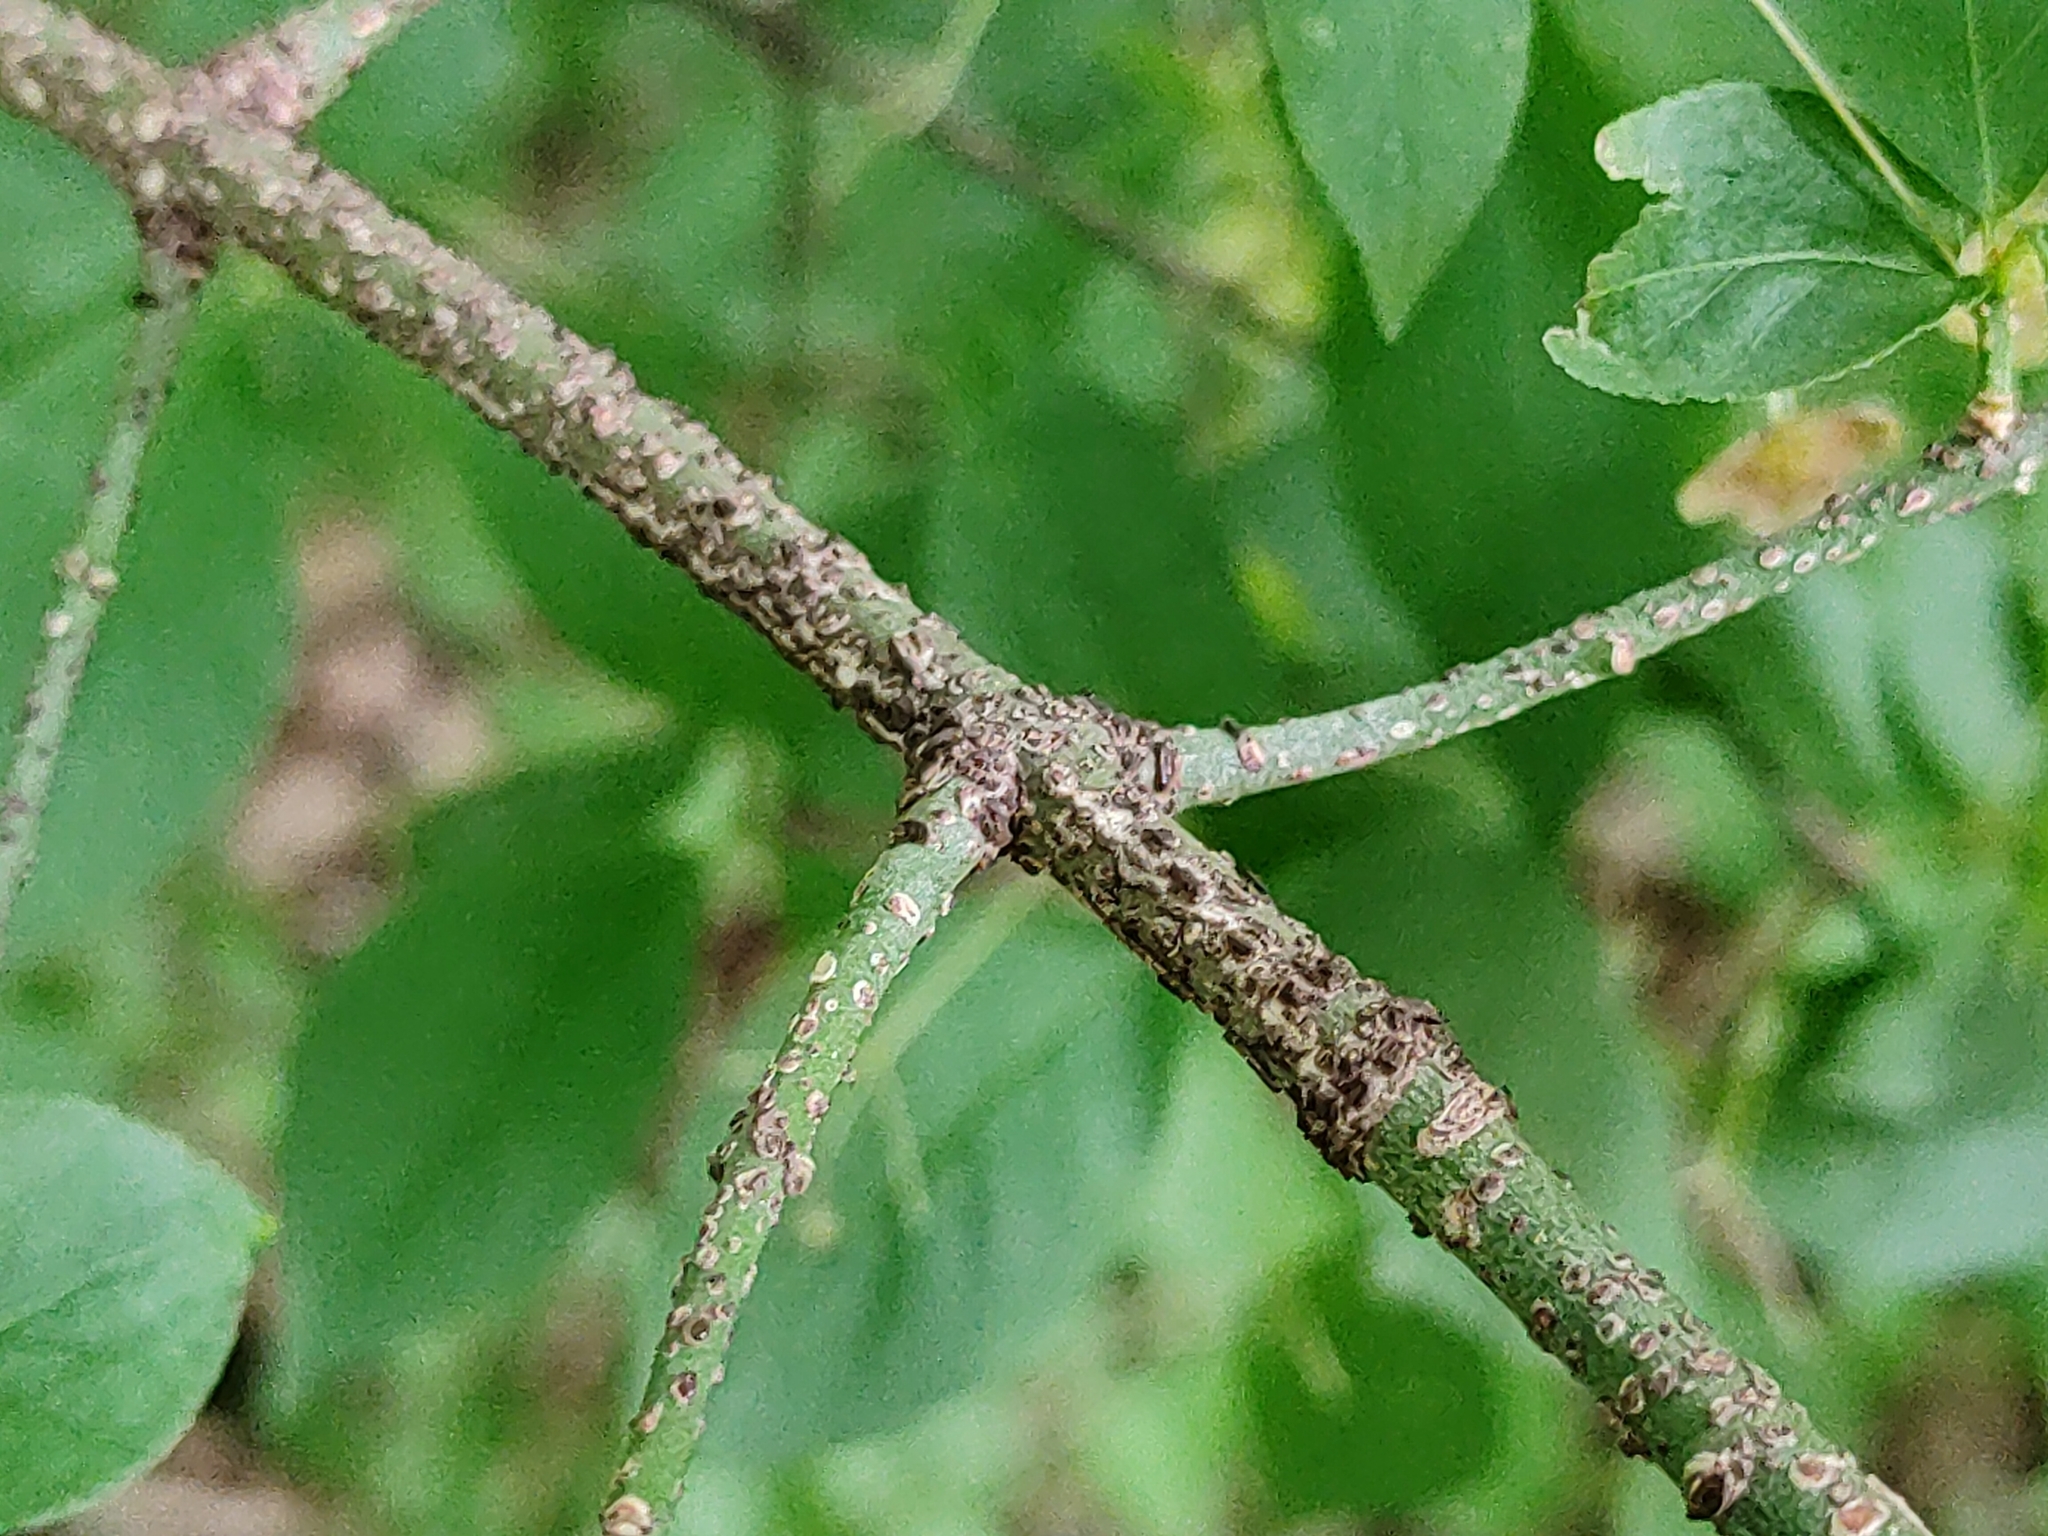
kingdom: Plantae
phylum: Tracheophyta
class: Magnoliopsida
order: Celastrales
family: Celastraceae
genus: Euonymus
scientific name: Euonymus verrucosus
